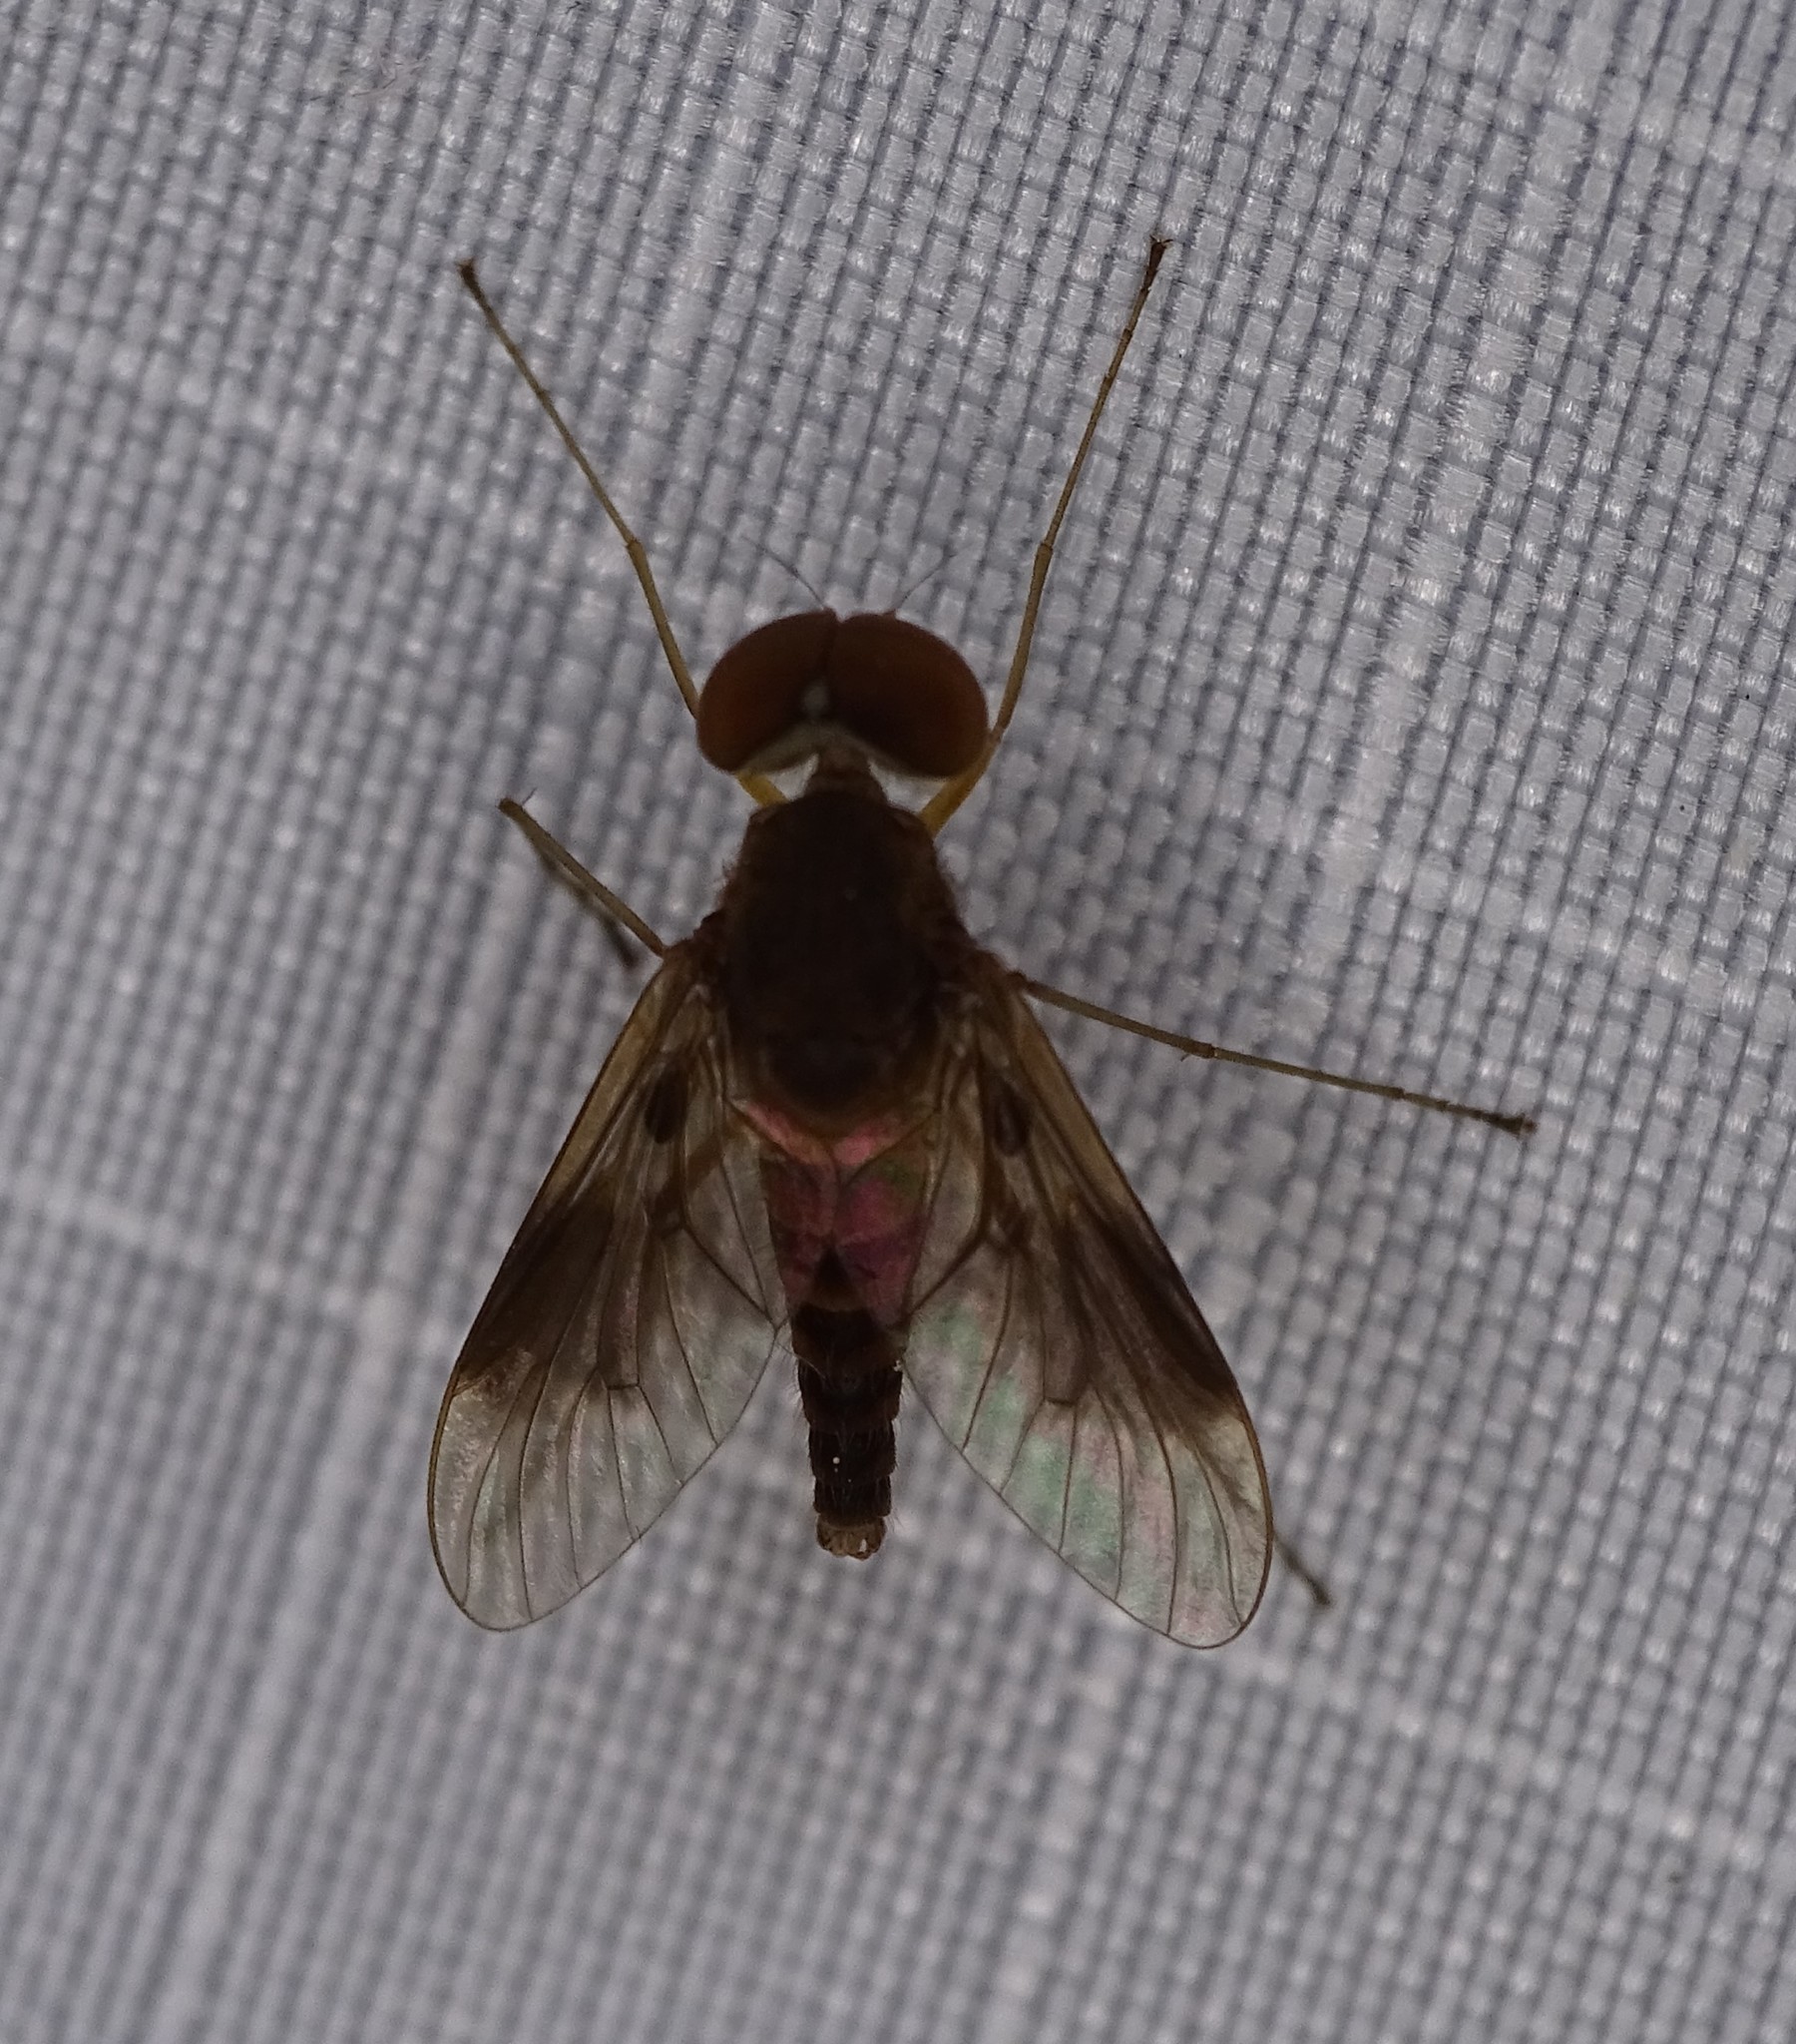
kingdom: Animalia
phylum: Arthropoda
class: Insecta
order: Diptera
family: Rhagionidae
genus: Chrysopilus
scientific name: Chrysopilus quadratus
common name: Quadrate snipe fly
